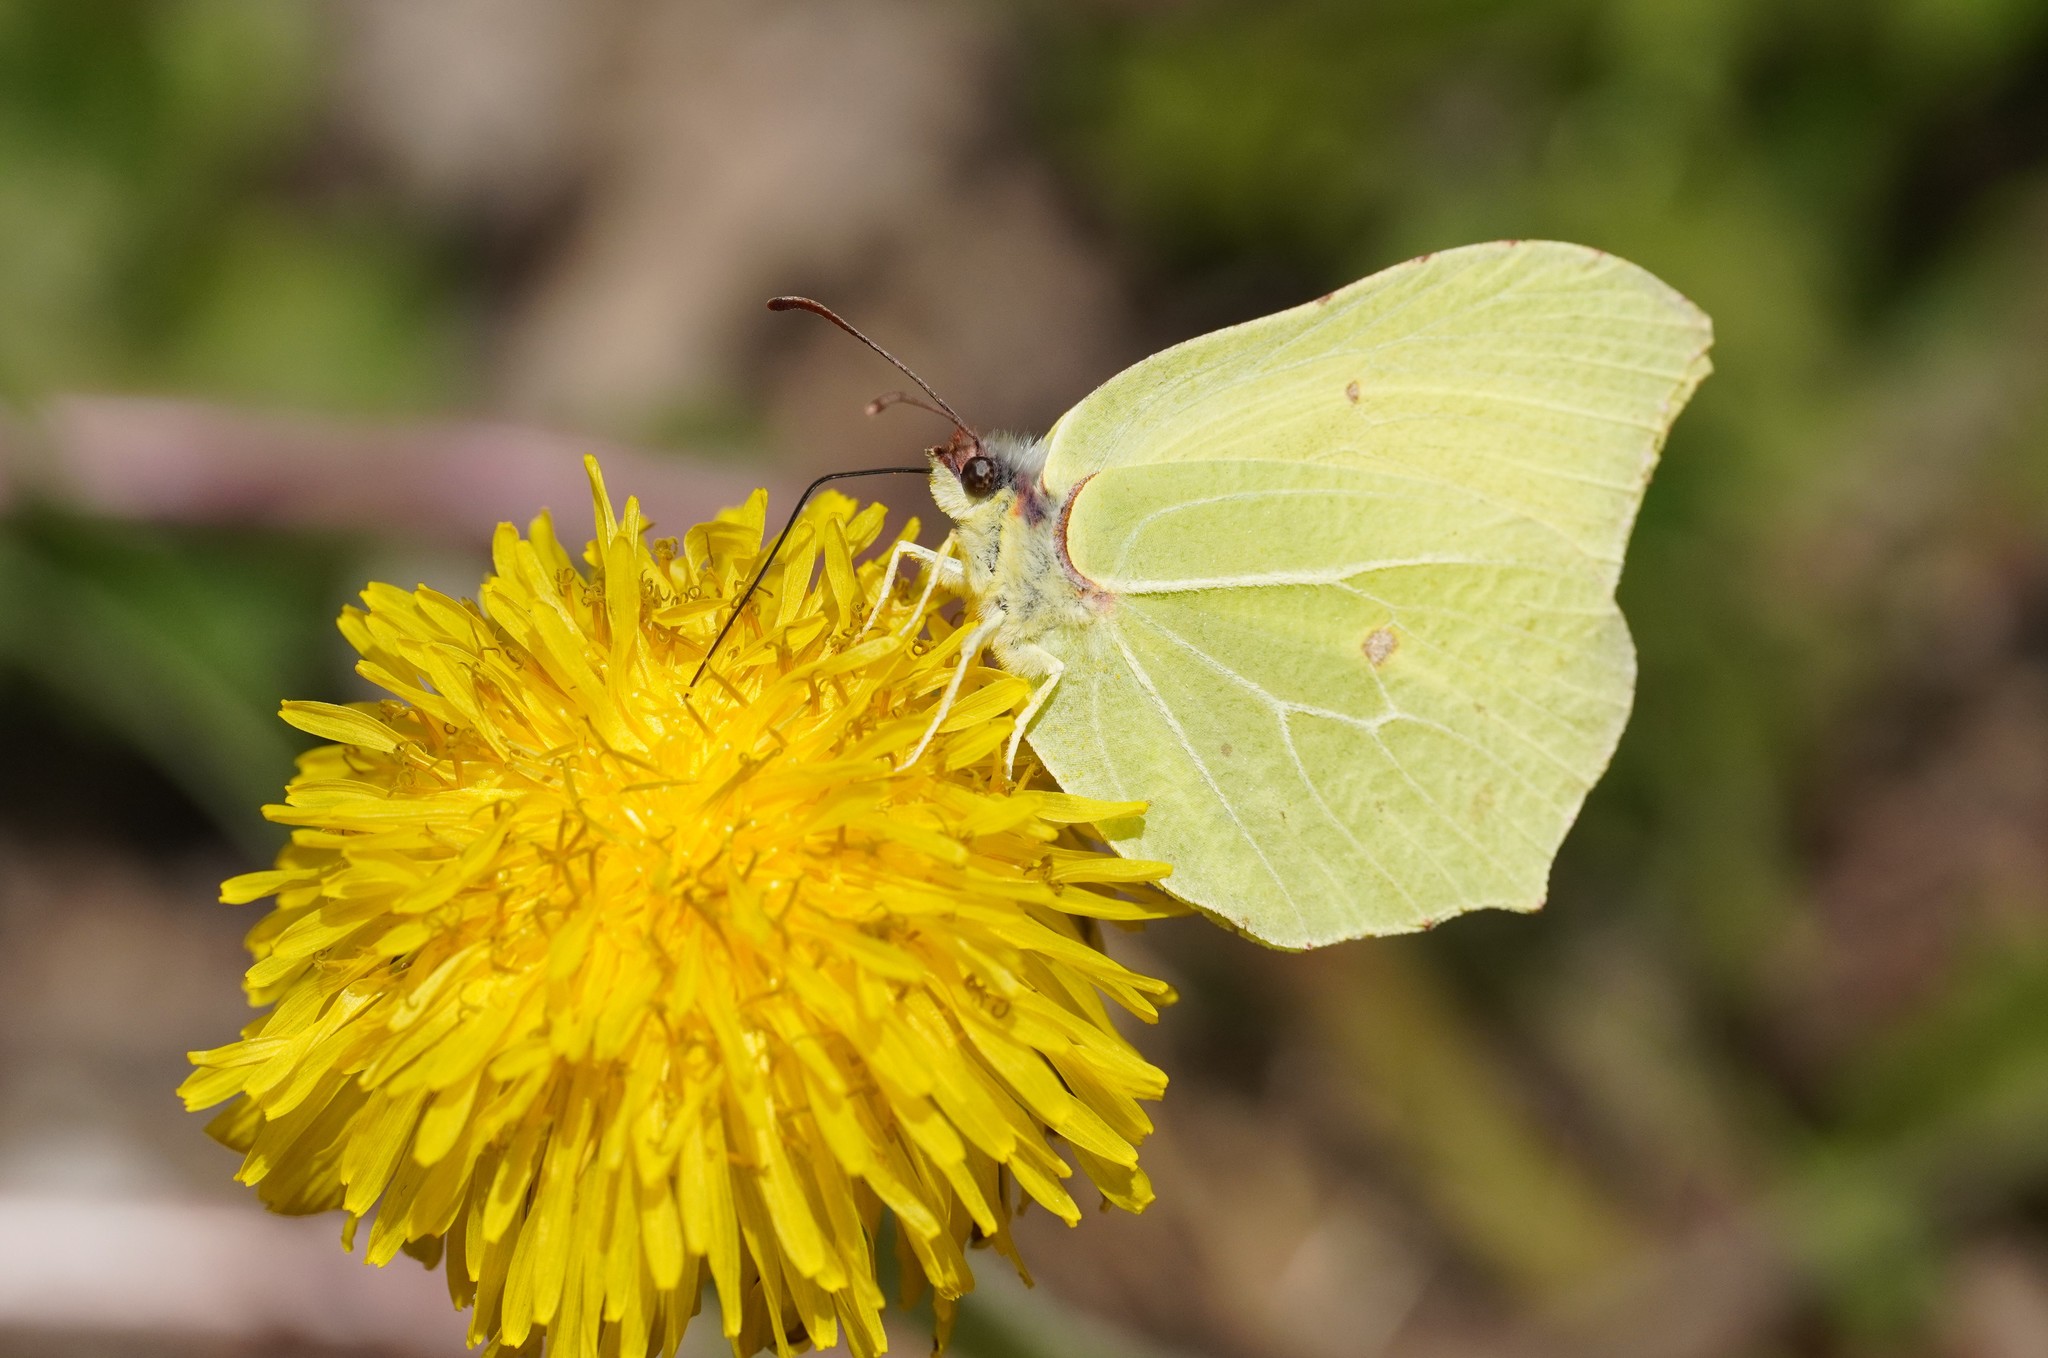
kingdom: Animalia
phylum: Arthropoda
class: Insecta
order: Lepidoptera
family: Pieridae
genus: Gonepteryx
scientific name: Gonepteryx rhamni
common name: Brimstone
